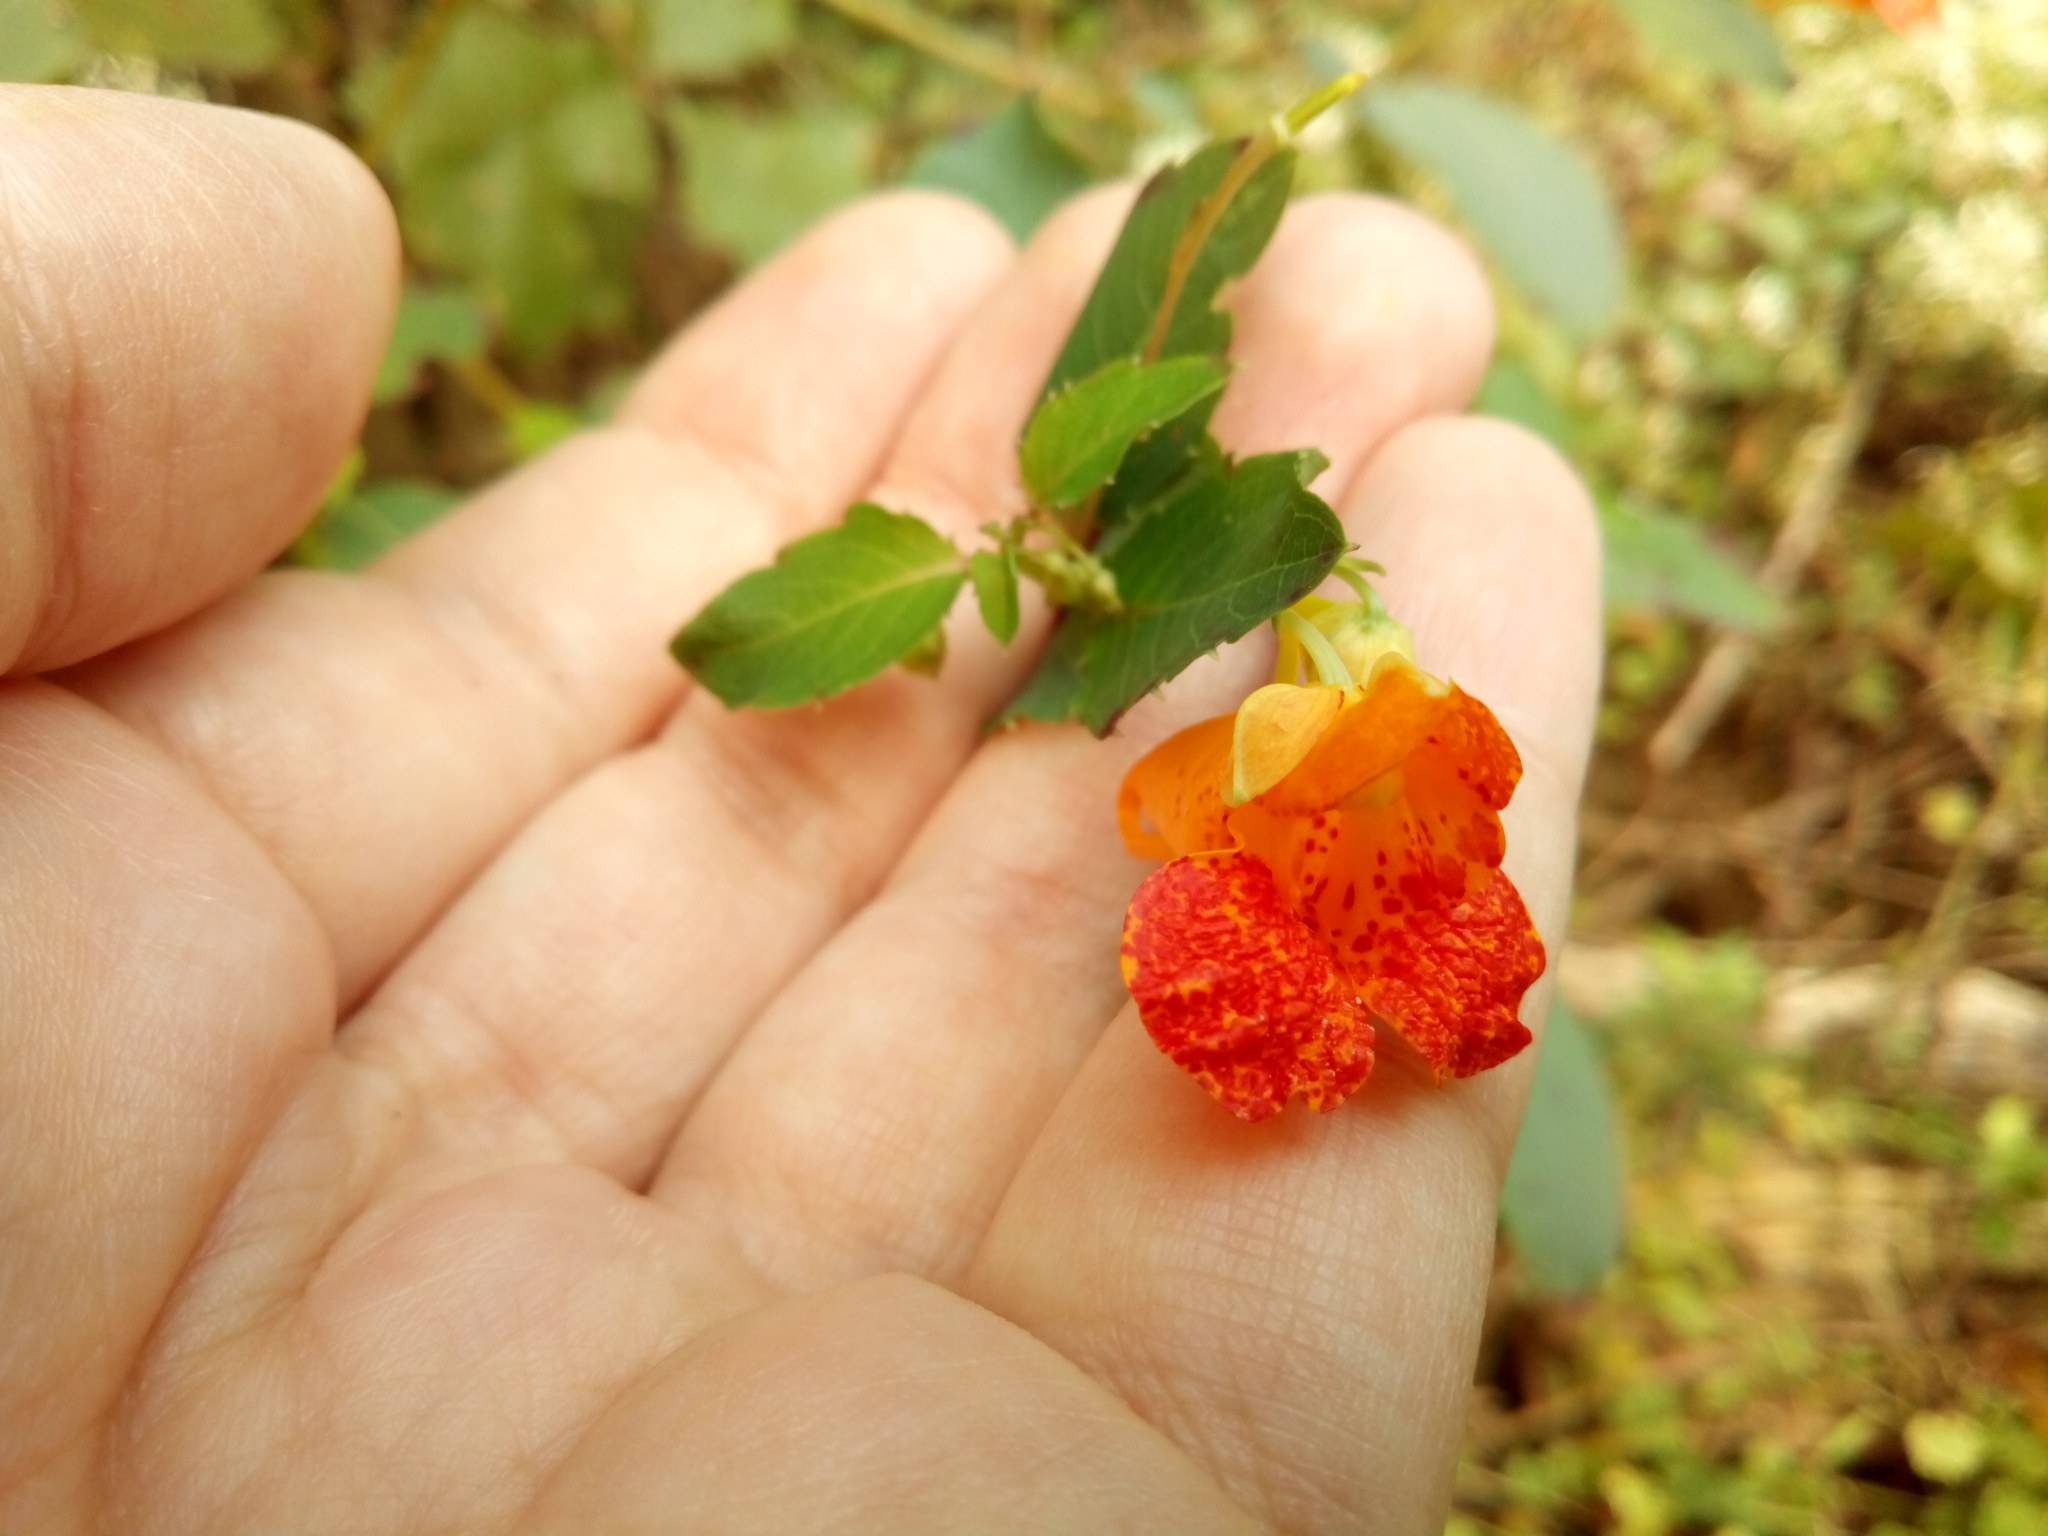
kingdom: Plantae
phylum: Tracheophyta
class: Magnoliopsida
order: Ericales
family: Balsaminaceae
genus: Impatiens
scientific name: Impatiens capensis
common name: Orange balsam
